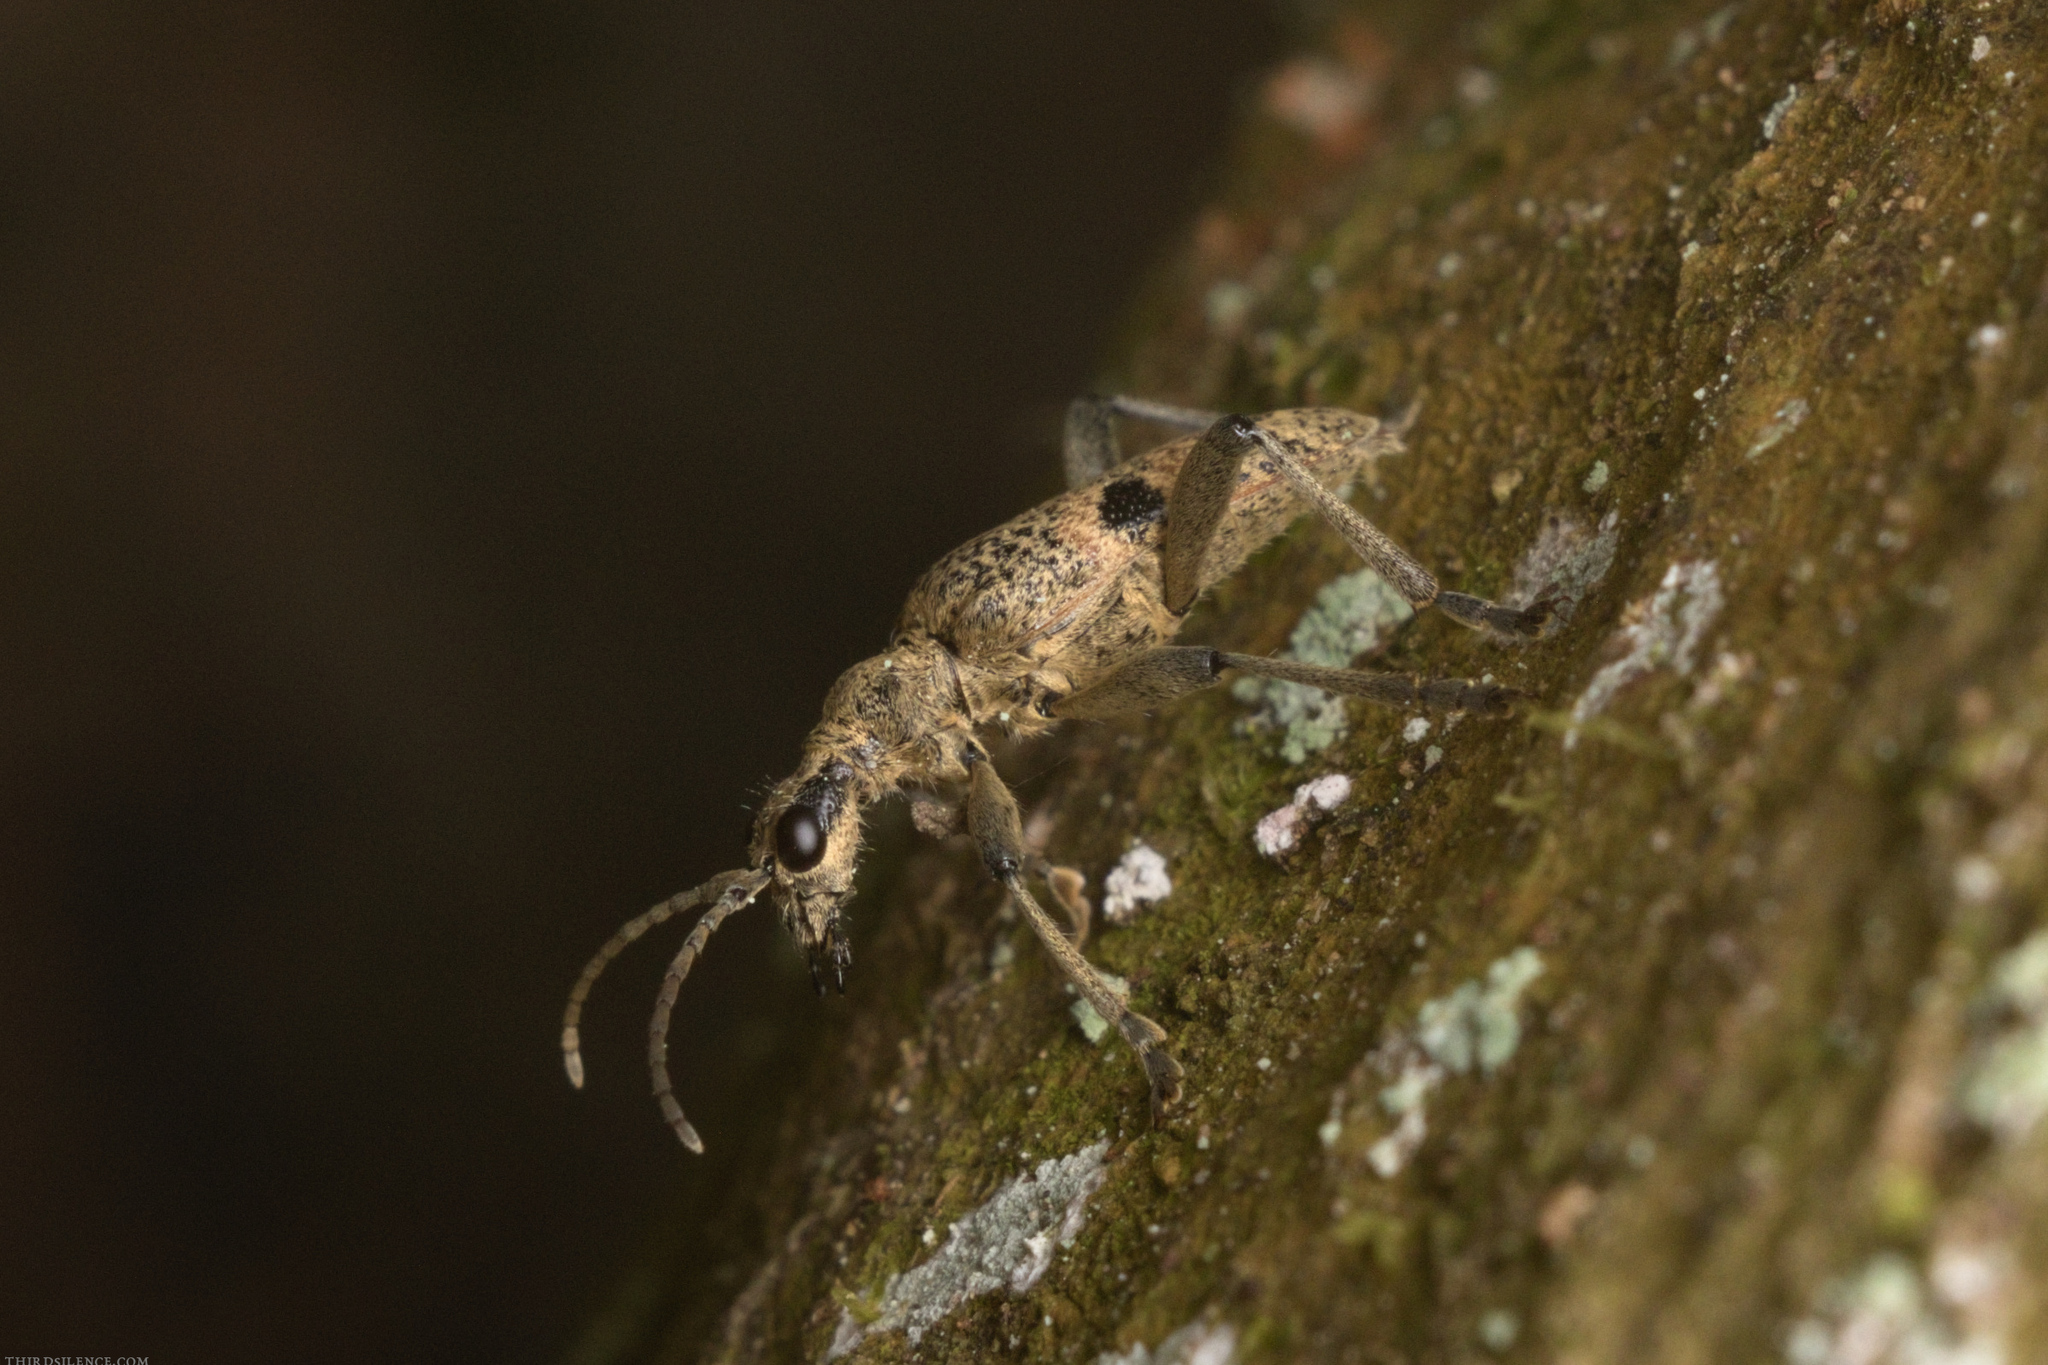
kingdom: Animalia
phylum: Arthropoda
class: Insecta
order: Coleoptera
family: Cerambycidae
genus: Rhagium
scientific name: Rhagium mordax
